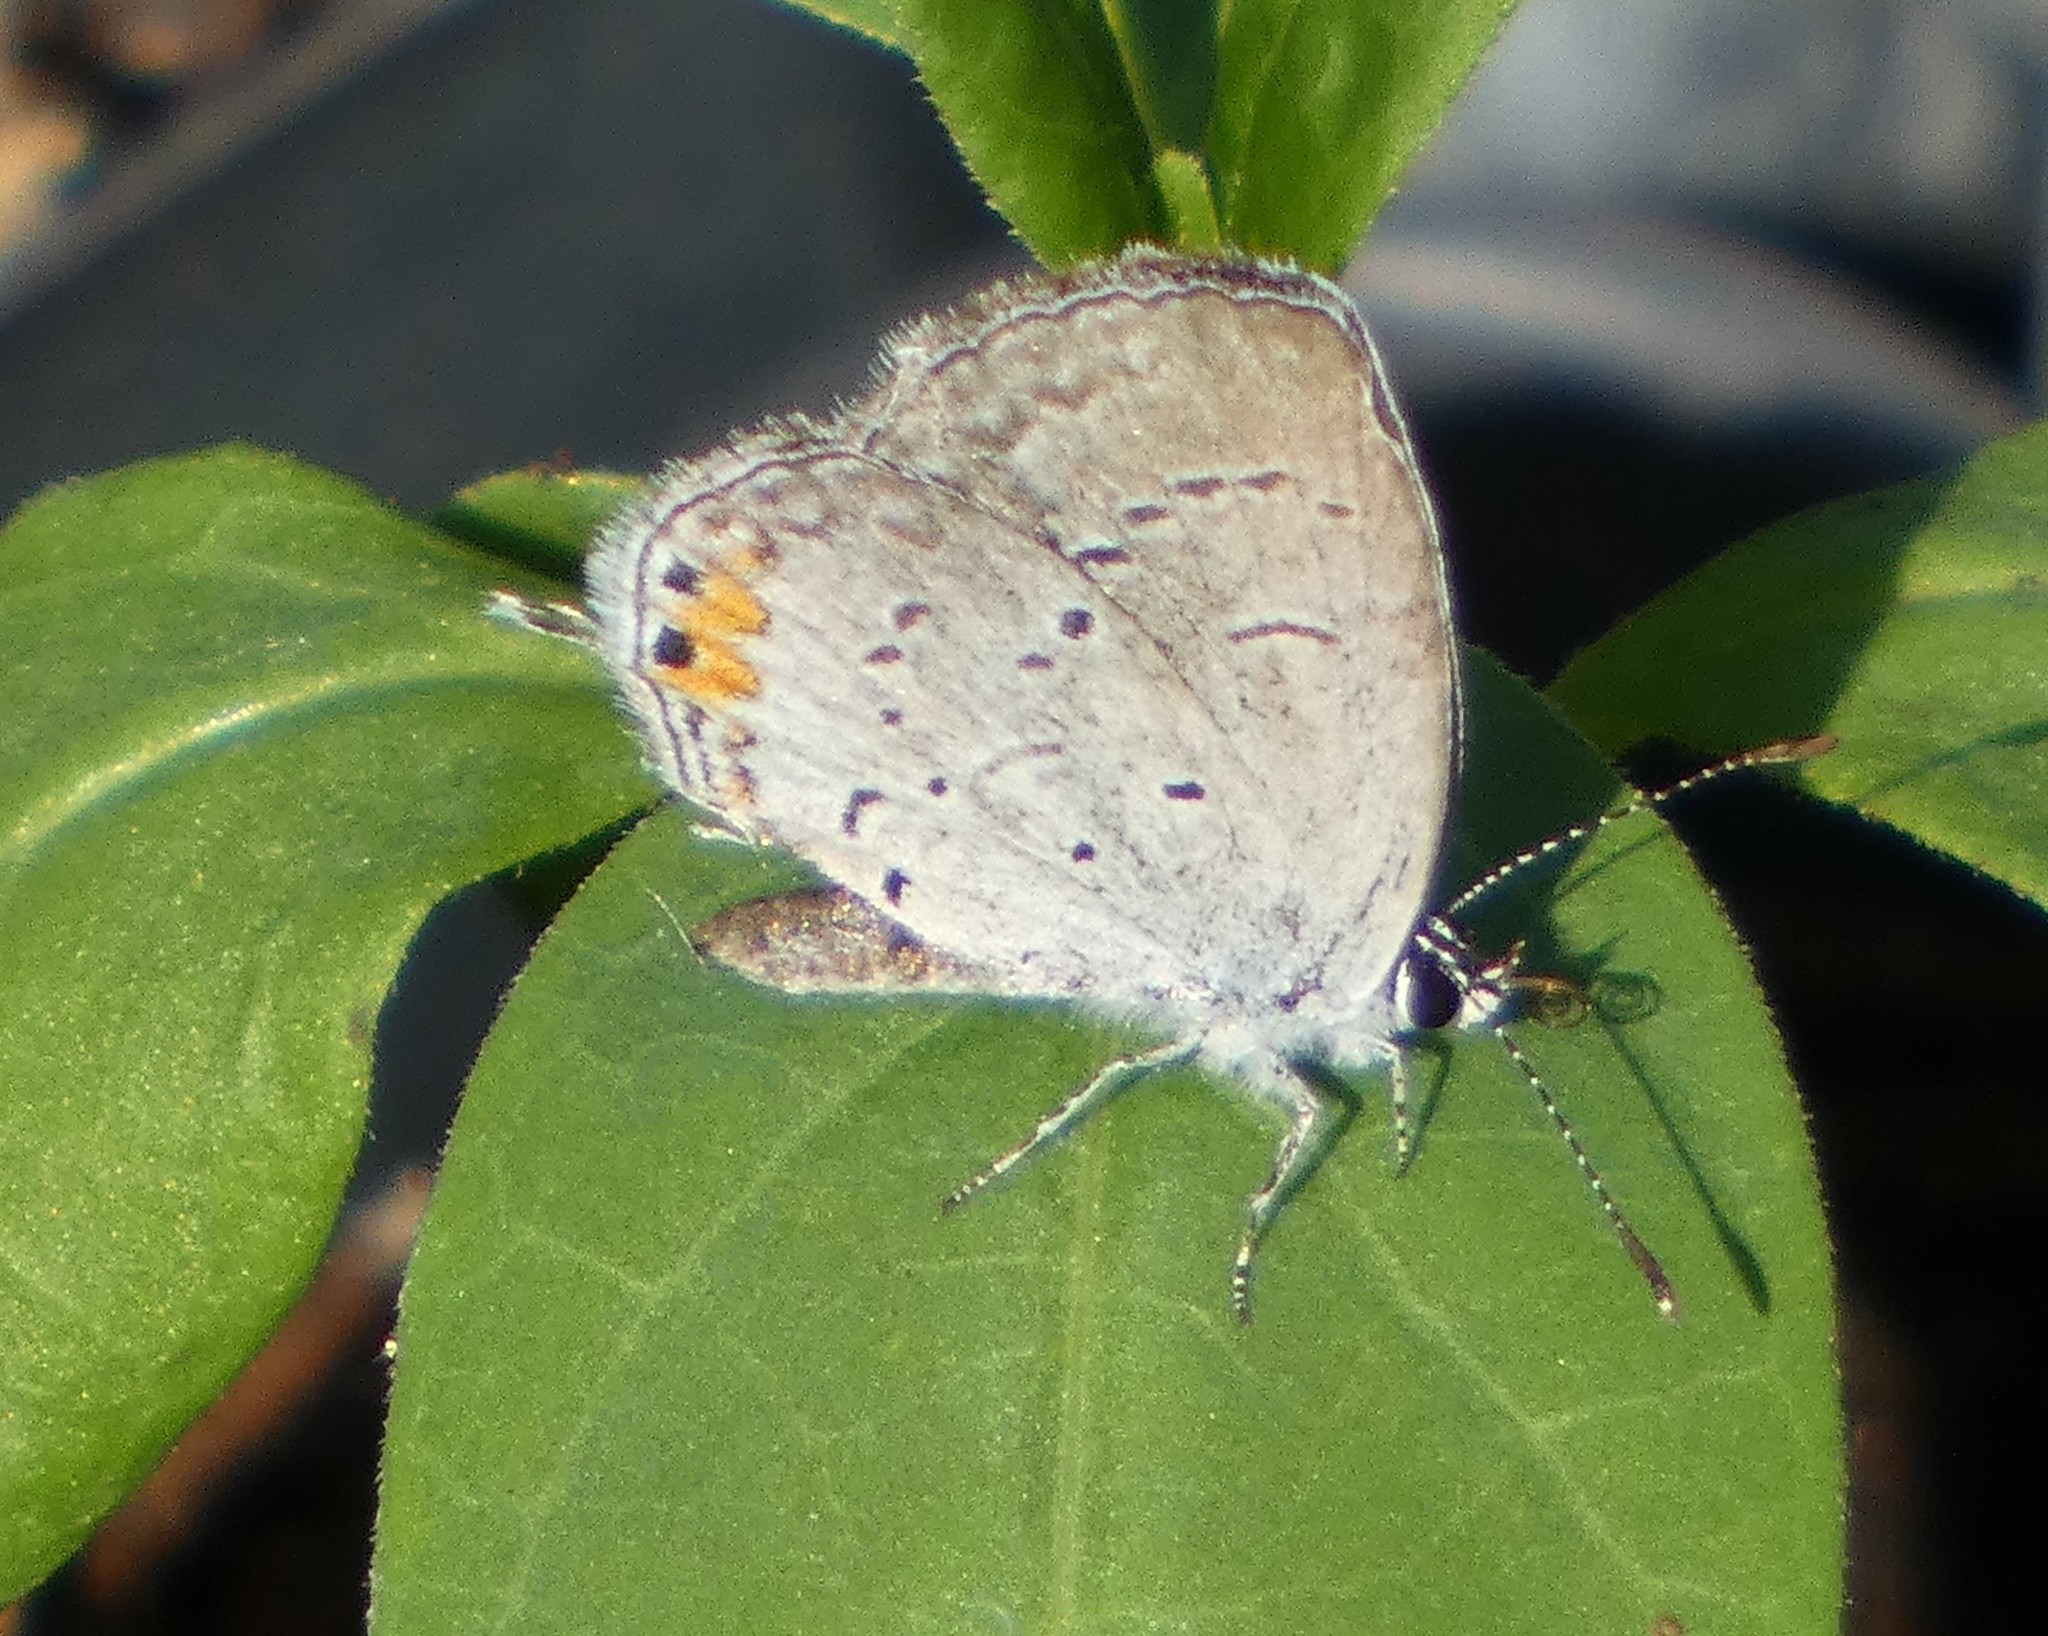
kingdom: Animalia
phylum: Arthropoda
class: Insecta
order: Lepidoptera
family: Lycaenidae
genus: Elkalyce
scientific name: Elkalyce comyntas
